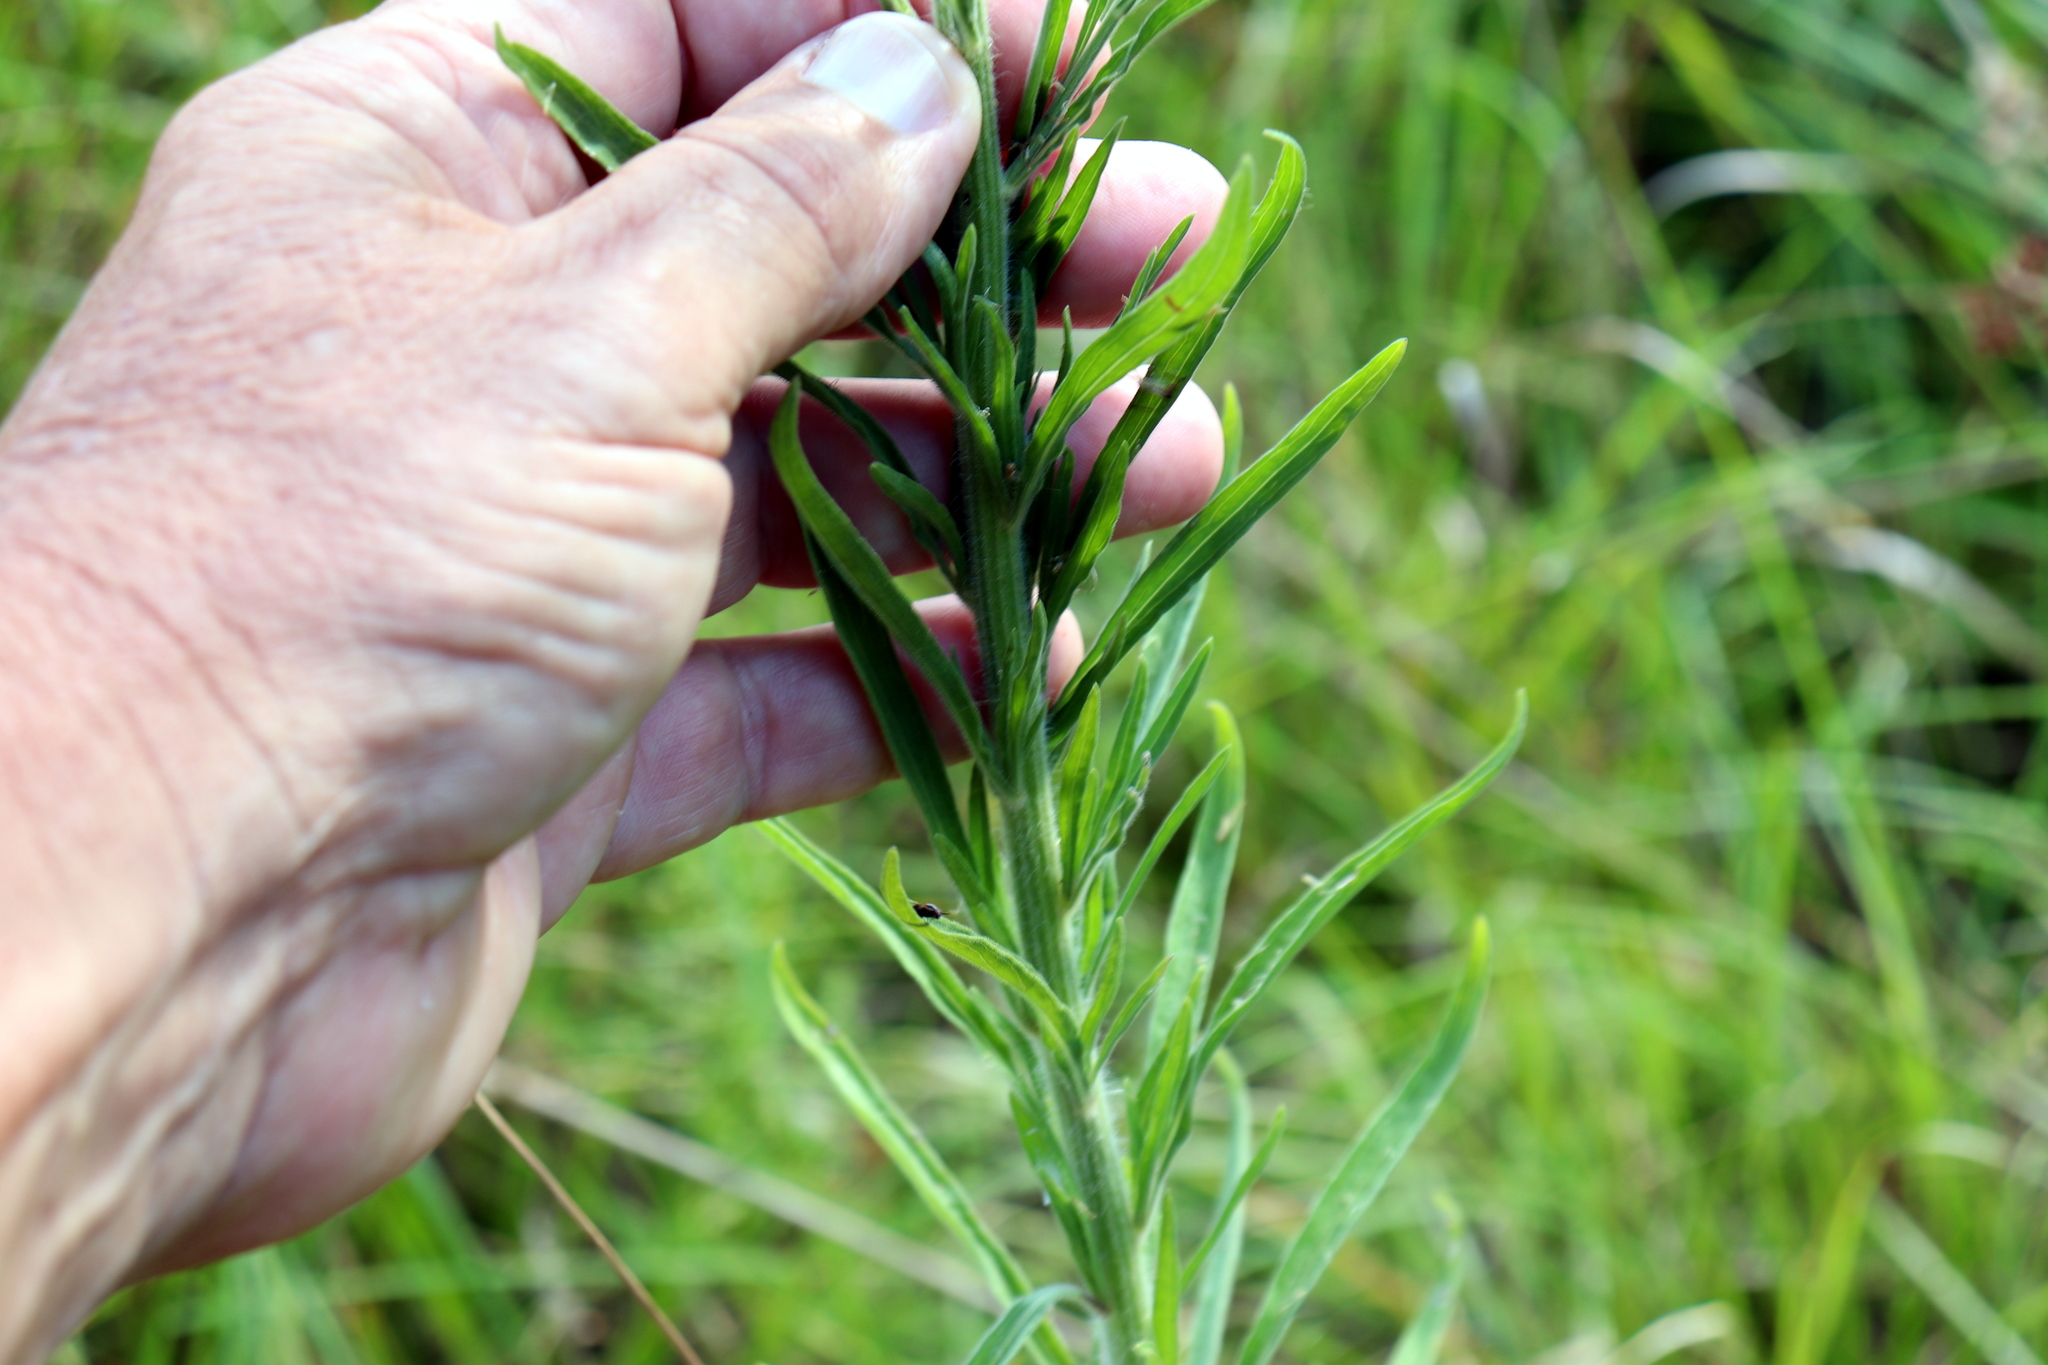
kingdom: Plantae
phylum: Tracheophyta
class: Magnoliopsida
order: Asterales
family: Asteraceae
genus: Erigeron
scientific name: Erigeron sumatrensis
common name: Daisy
